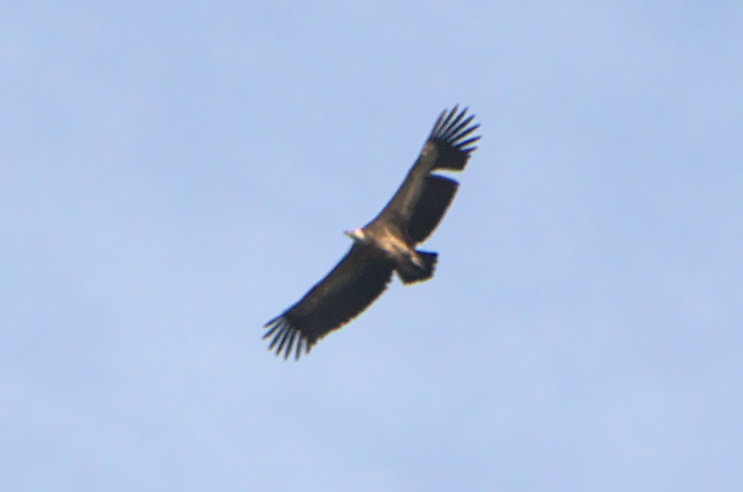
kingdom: Animalia
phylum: Chordata
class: Aves
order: Accipitriformes
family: Accipitridae
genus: Gyps
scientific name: Gyps fulvus
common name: Griffon vulture
